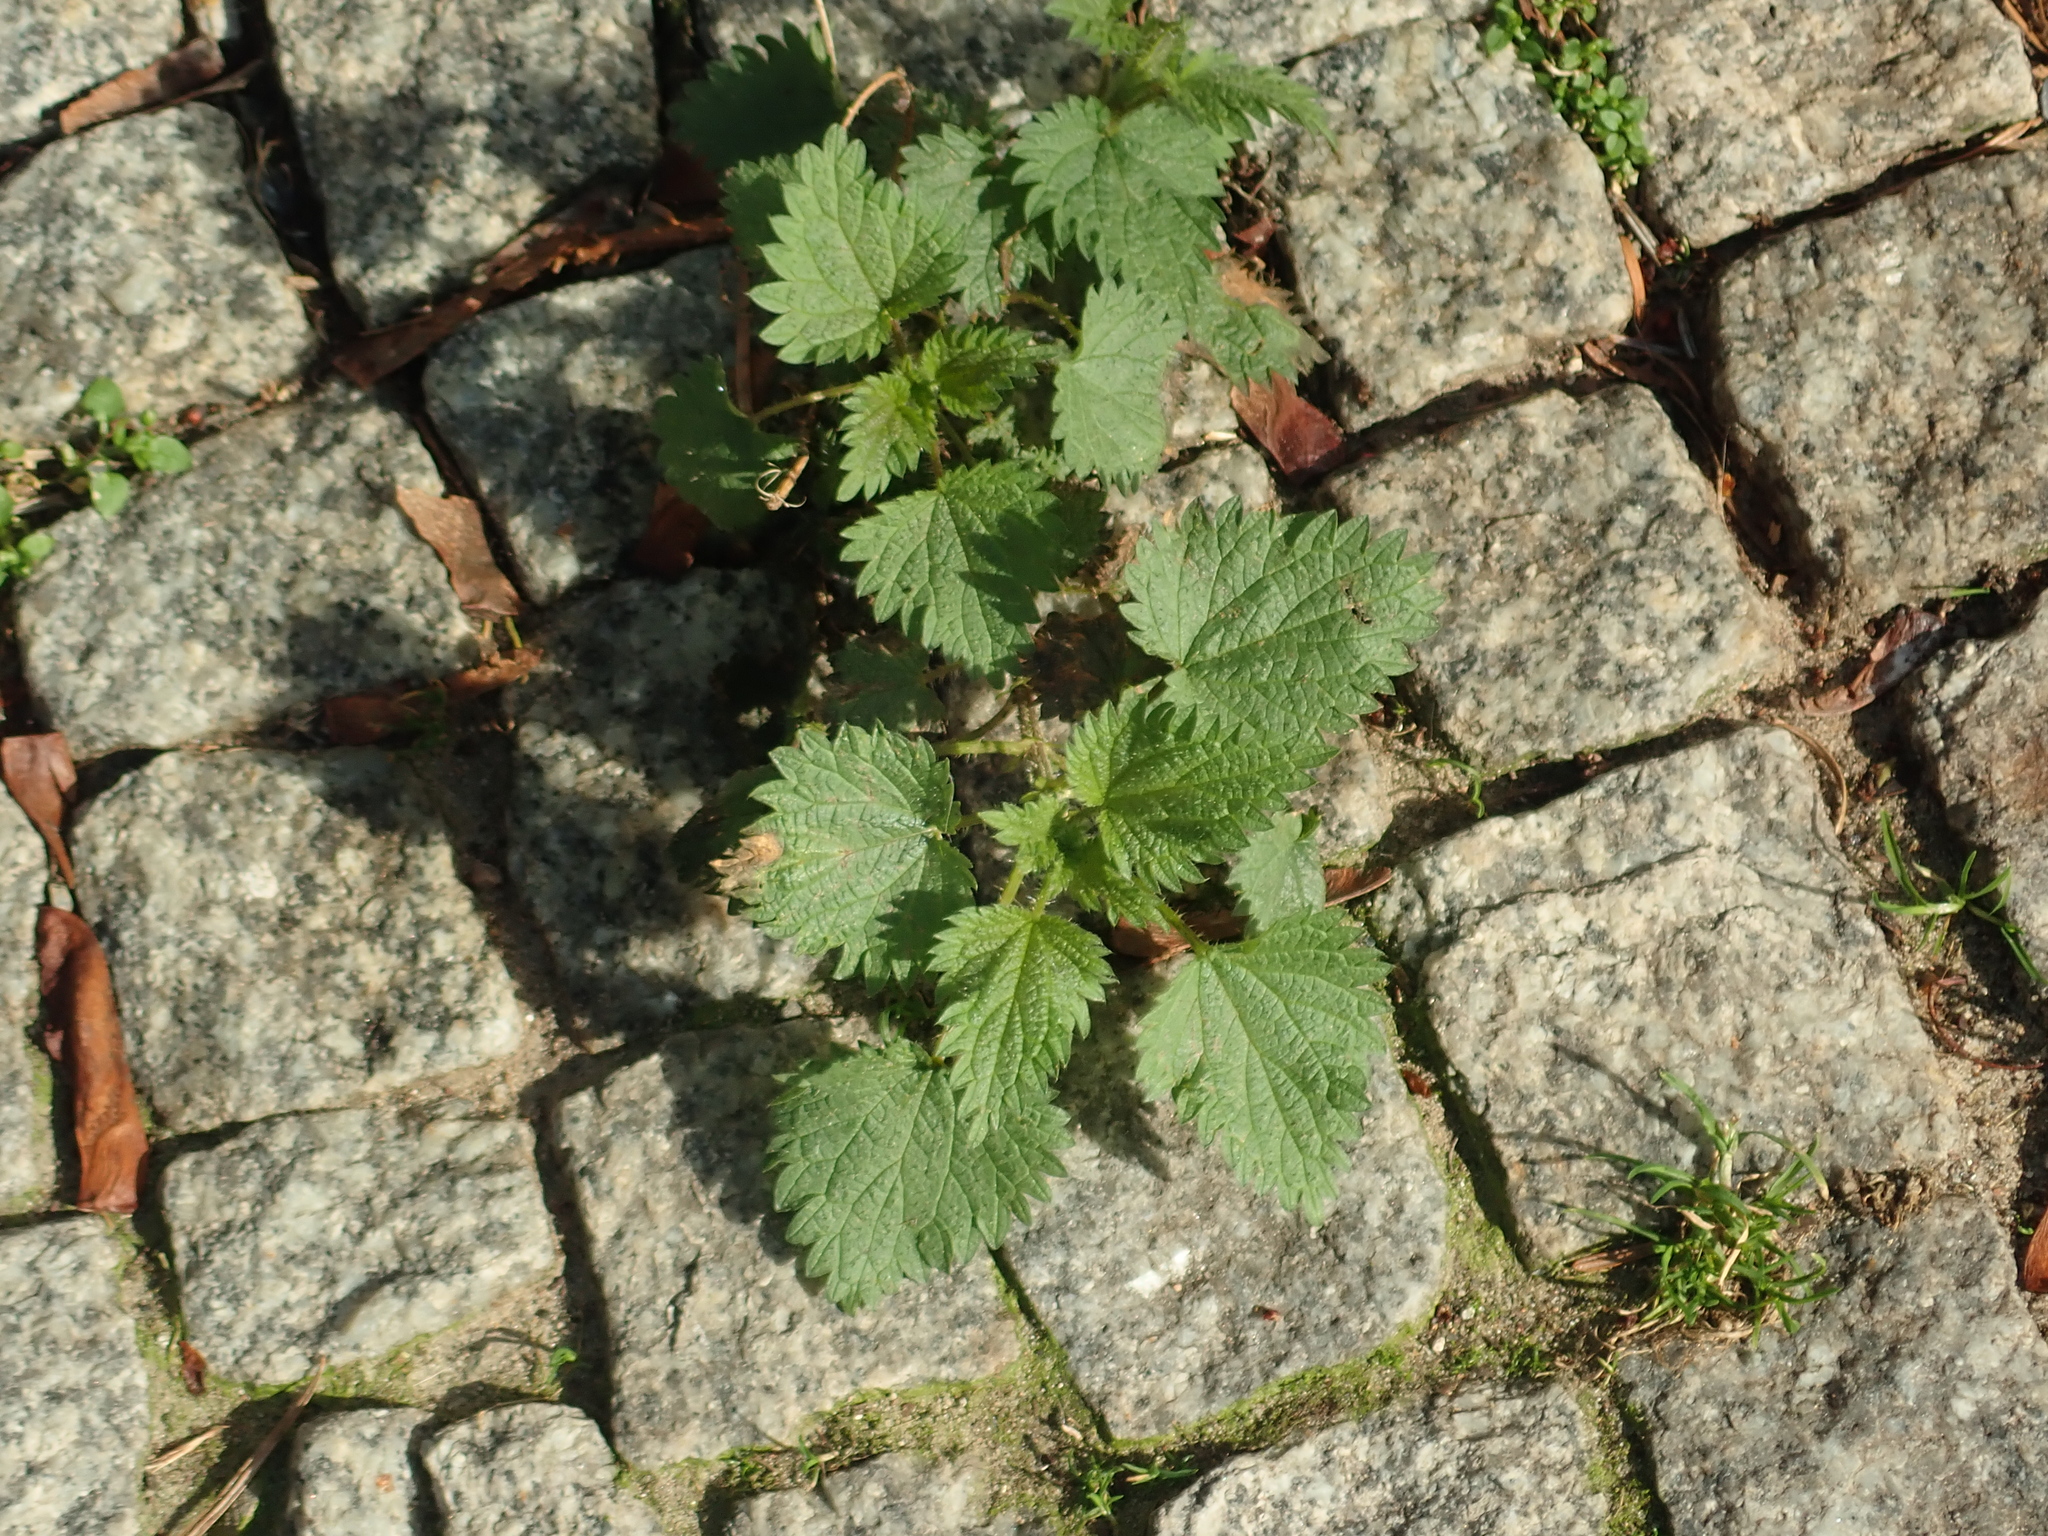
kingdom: Plantae
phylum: Tracheophyta
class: Magnoliopsida
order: Rosales
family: Urticaceae
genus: Urtica
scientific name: Urtica dioica
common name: Common nettle
